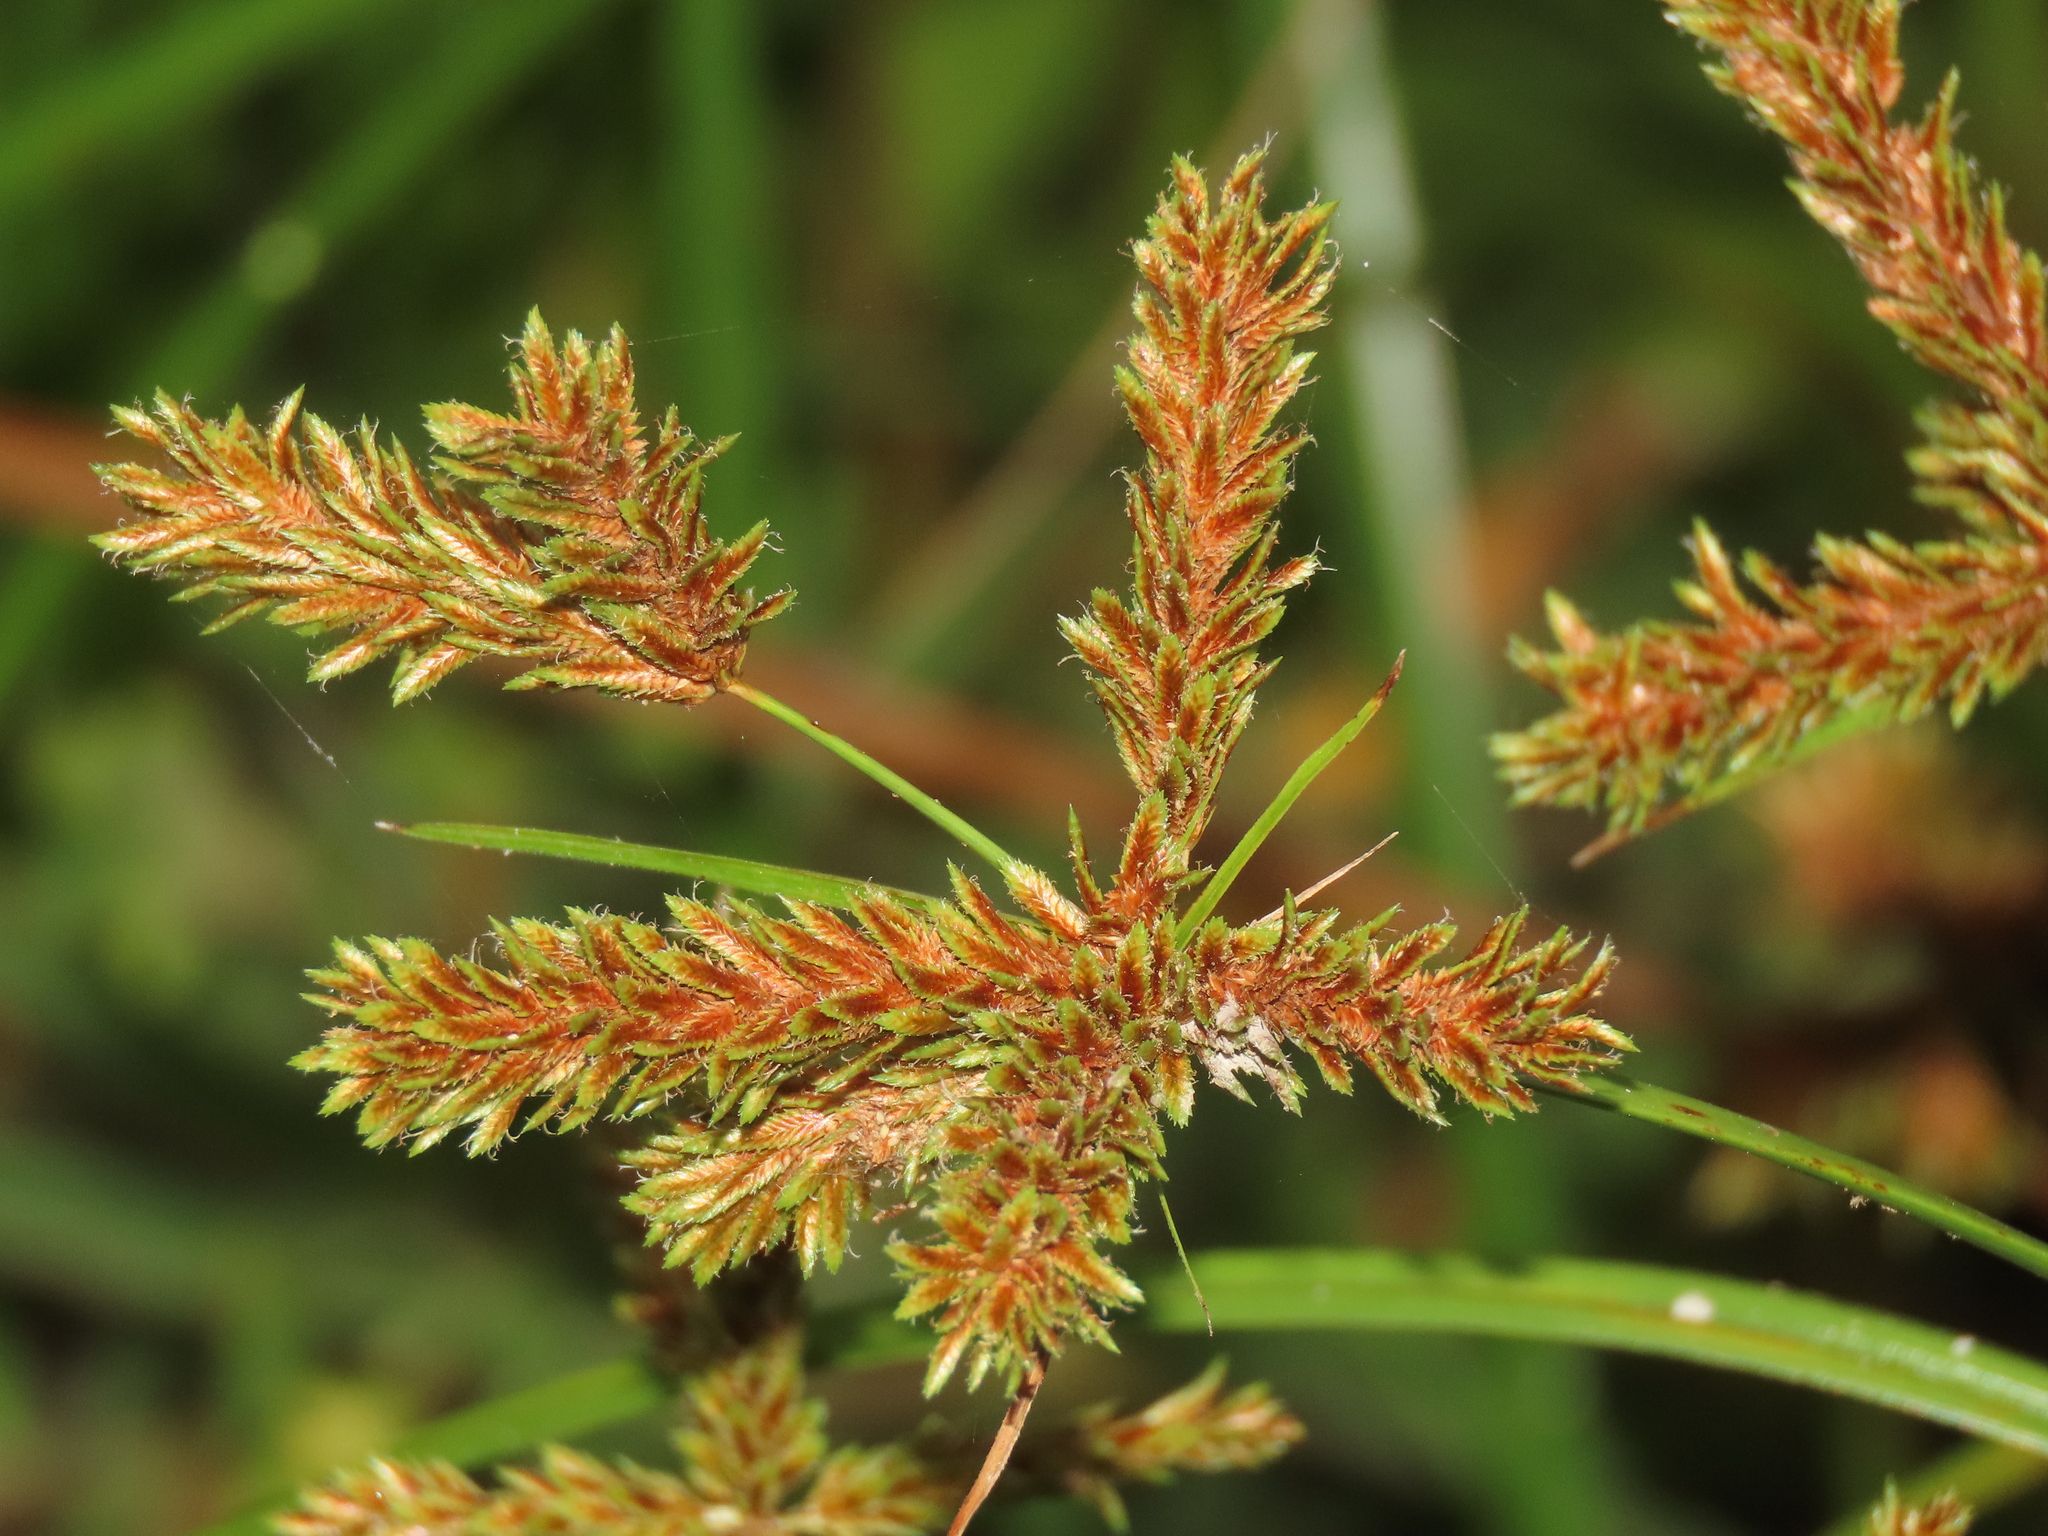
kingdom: Plantae
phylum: Tracheophyta
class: Liliopsida
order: Poales
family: Cyperaceae
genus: Cyperus
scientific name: Cyperus imbricatus
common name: Shingle flatsedge
